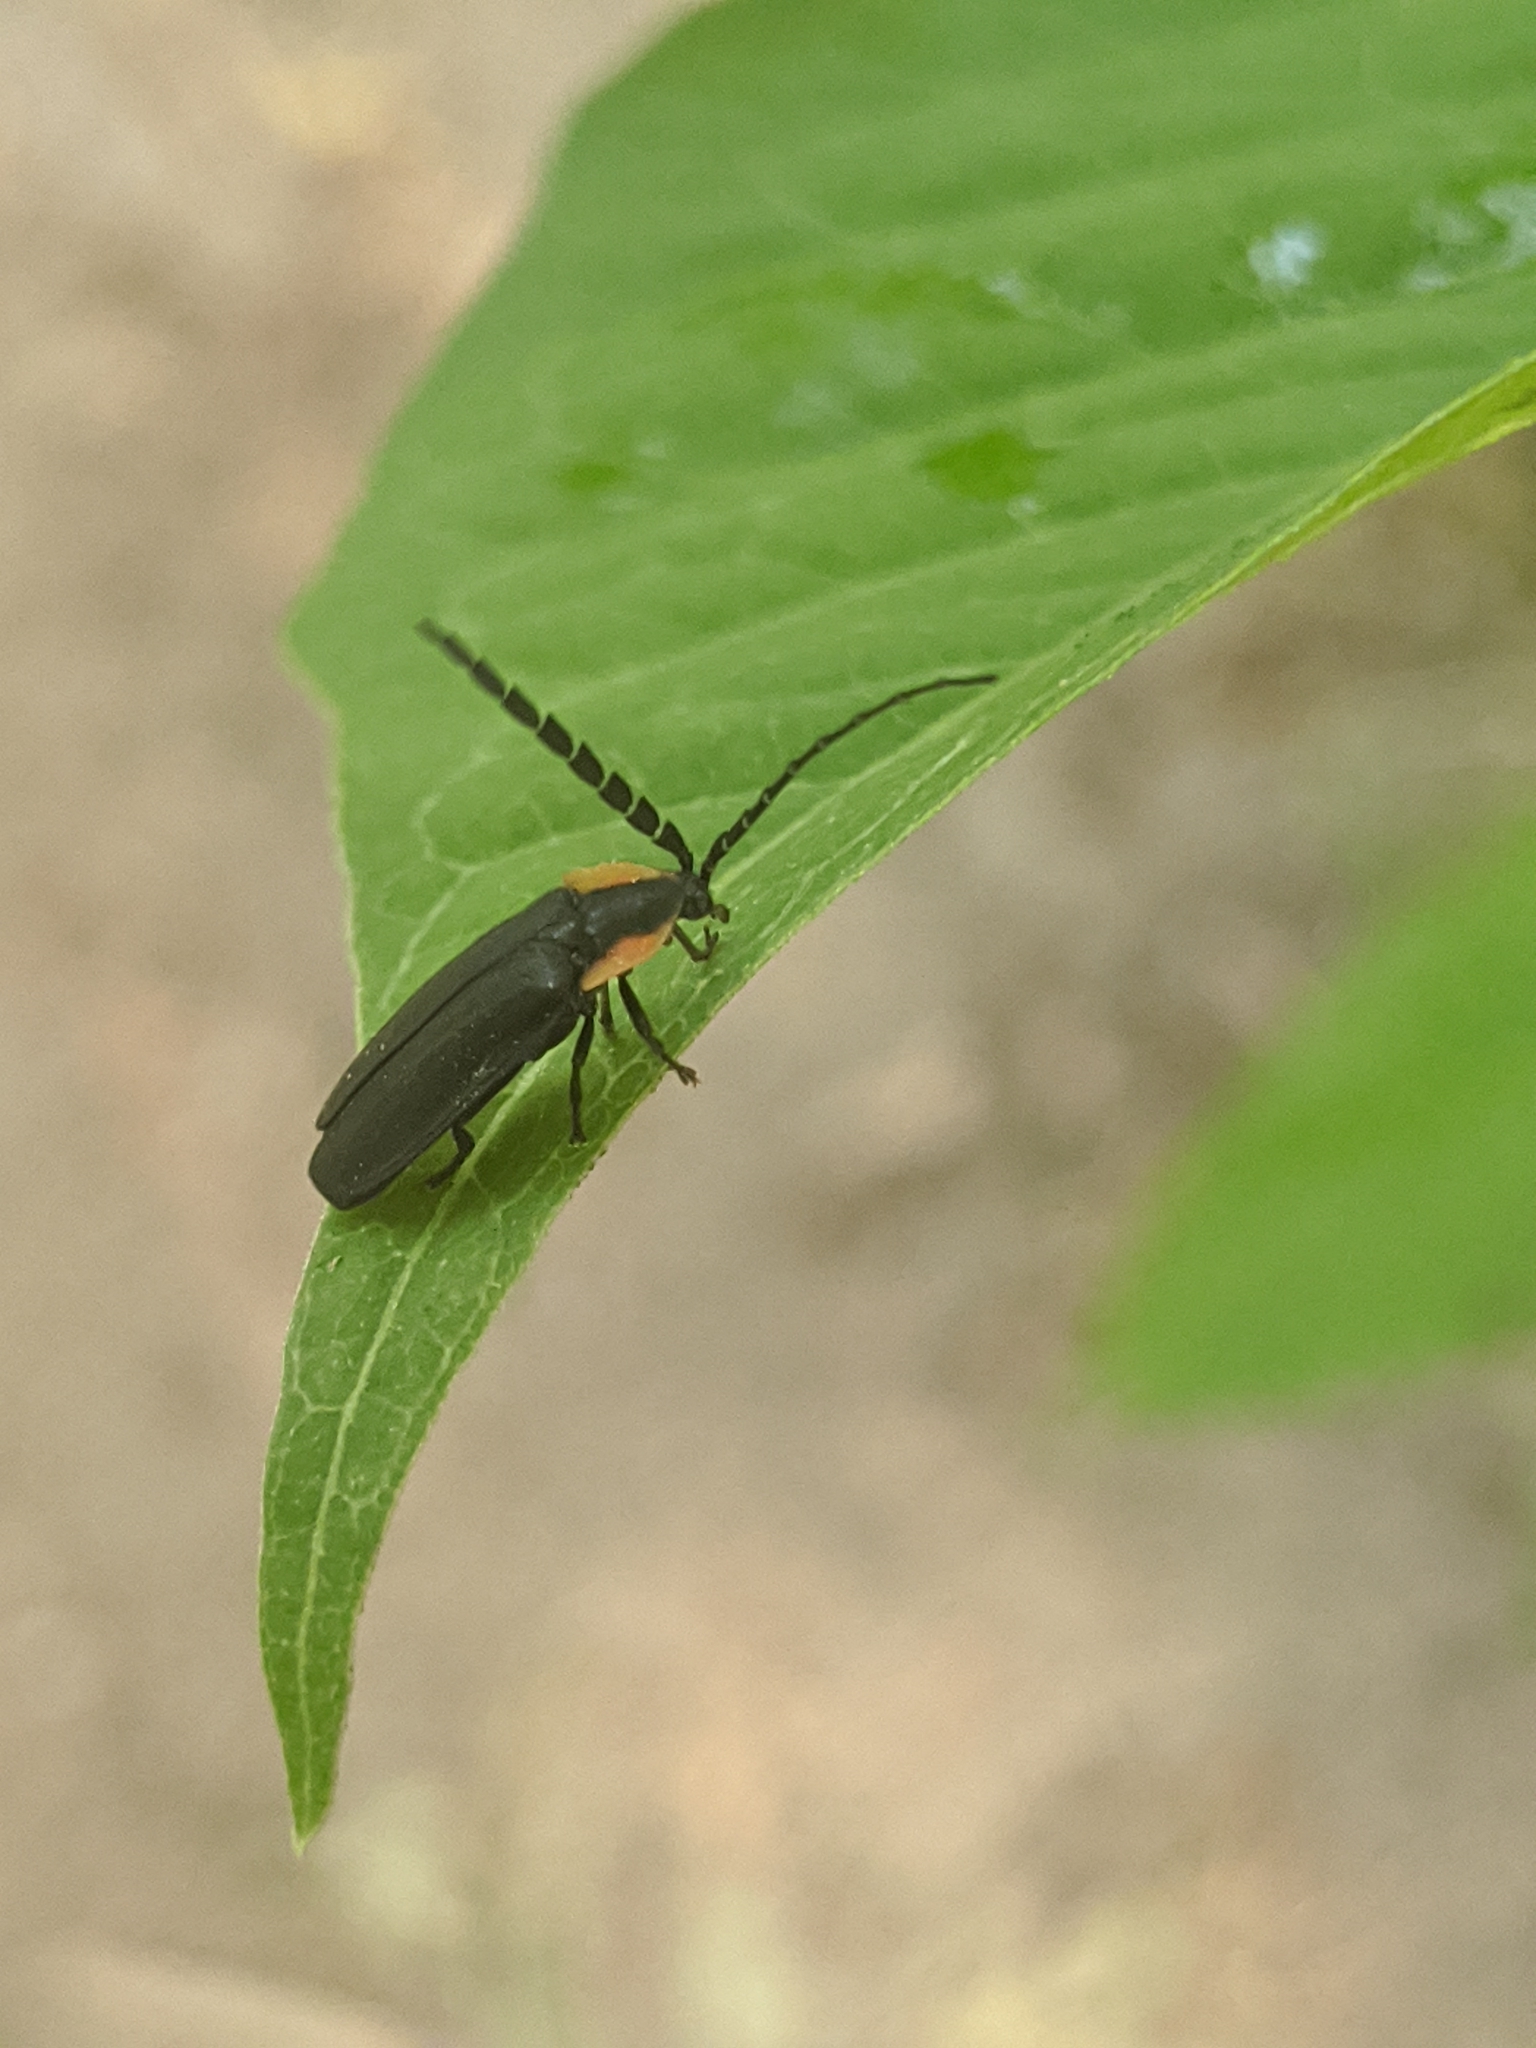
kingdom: Animalia
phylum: Arthropoda
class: Insecta
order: Coleoptera
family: Lampyridae
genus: Lucidota
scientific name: Lucidota atra
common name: Black firefly
